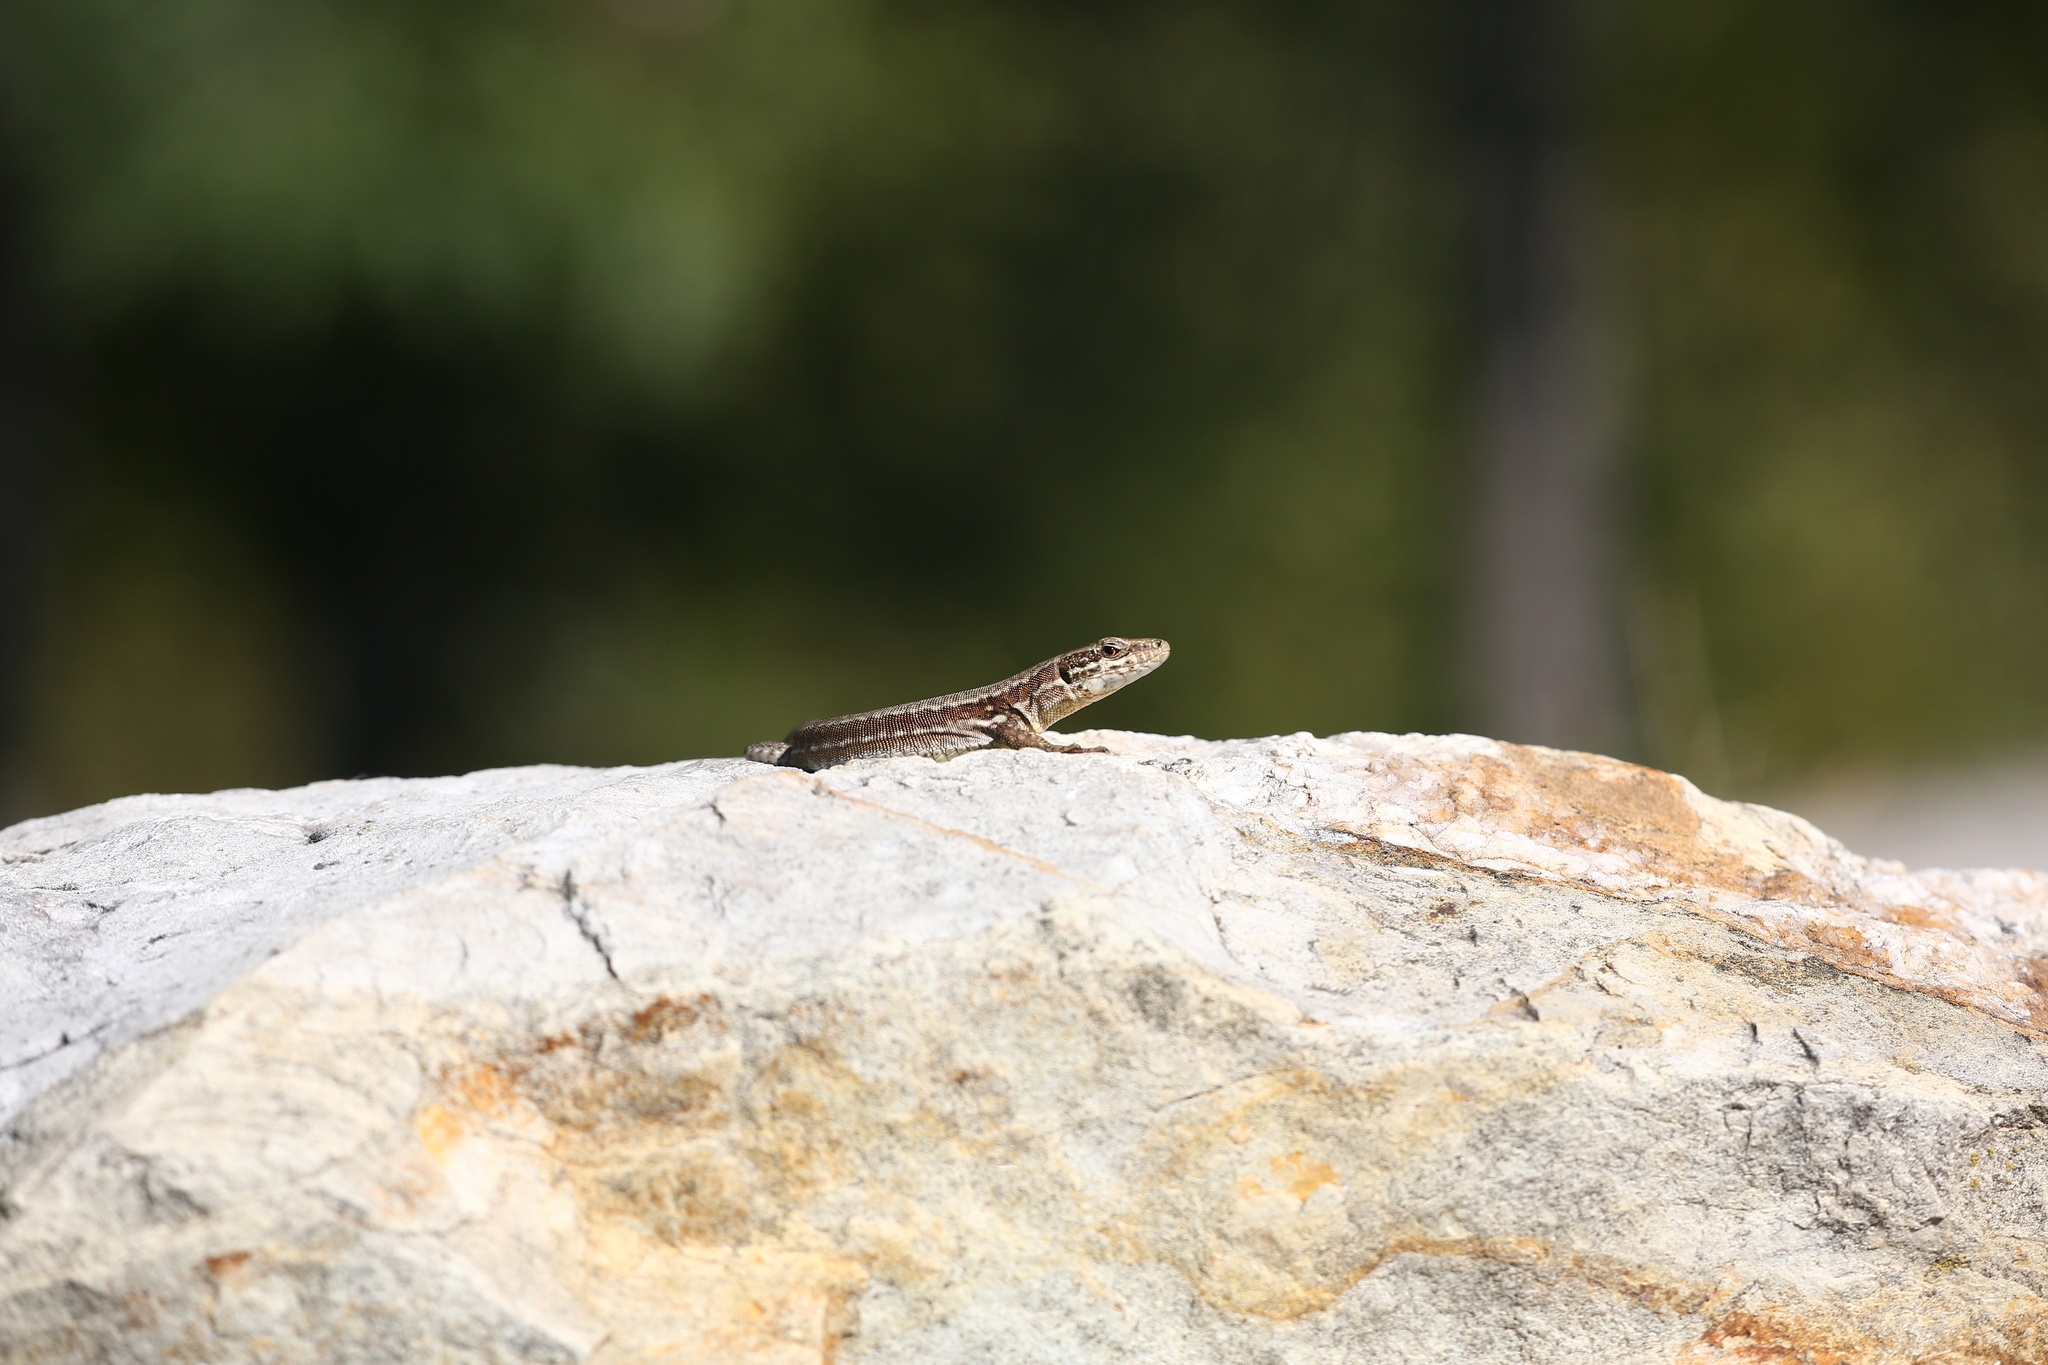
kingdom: Animalia
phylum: Chordata
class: Squamata
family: Lacertidae
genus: Podarcis
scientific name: Podarcis muralis
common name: Common wall lizard
